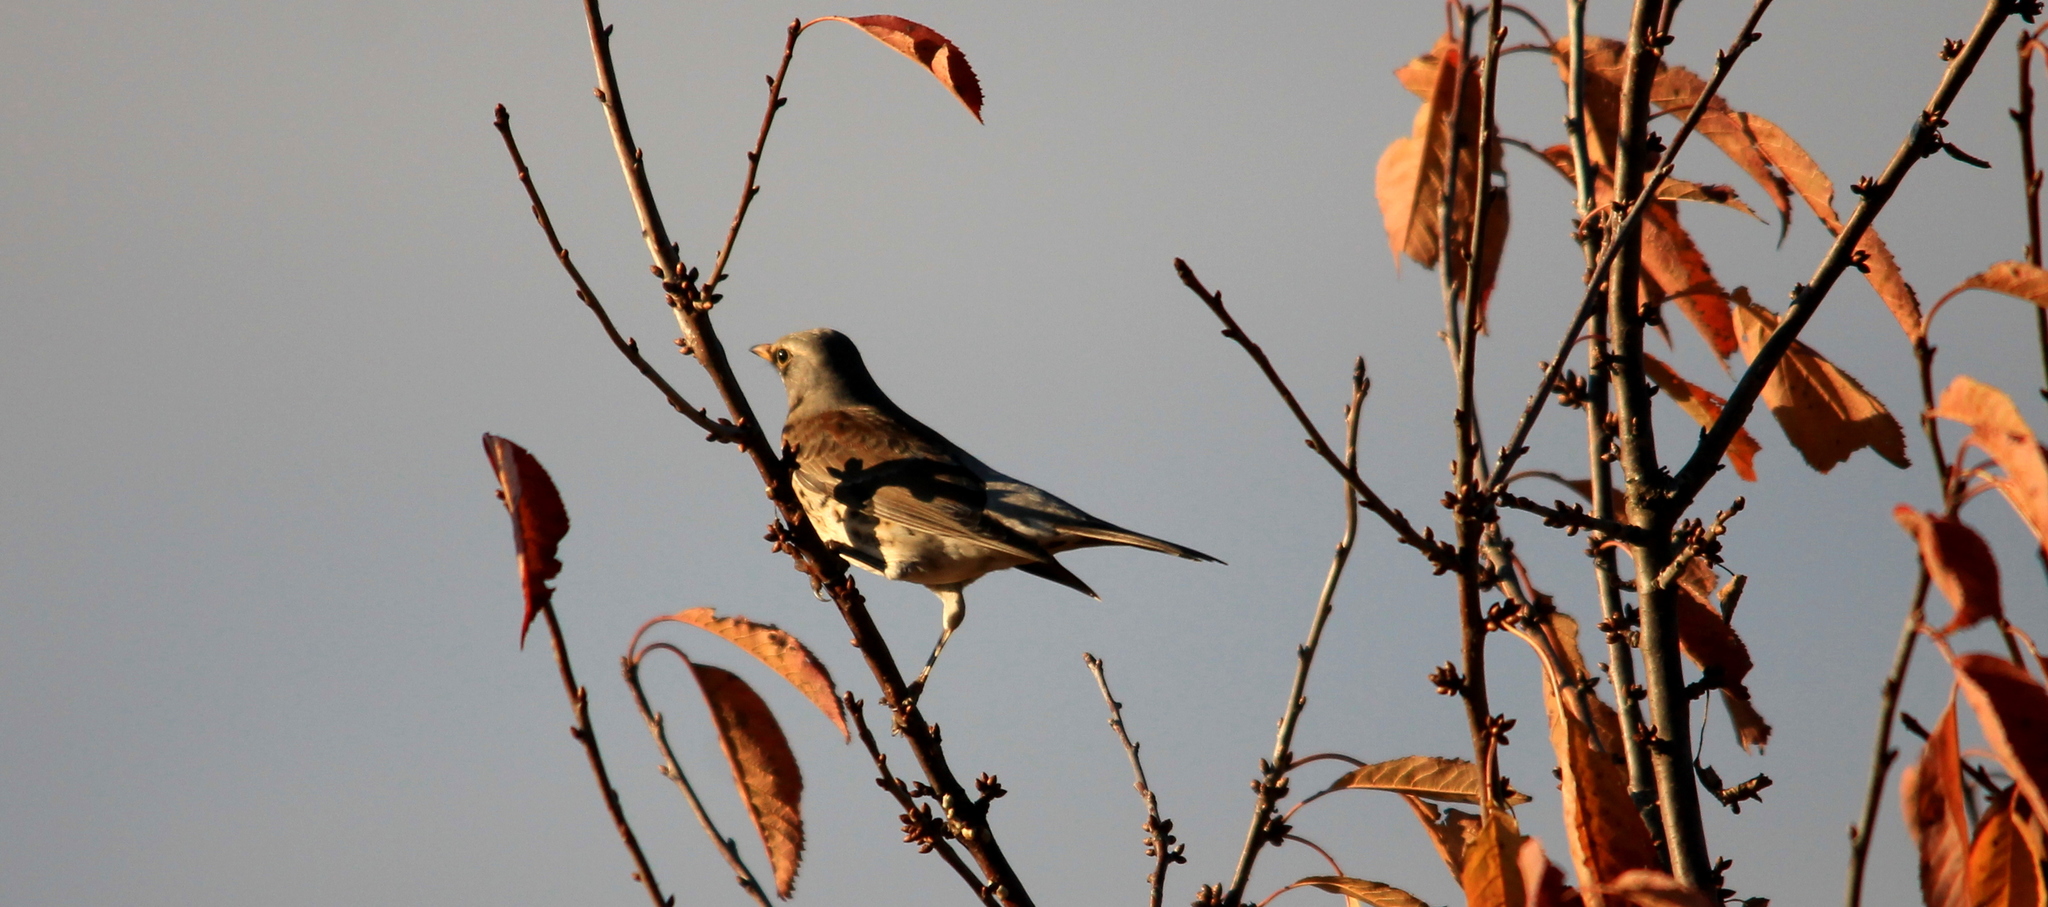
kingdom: Animalia
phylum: Chordata
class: Aves
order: Passeriformes
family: Turdidae
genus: Turdus
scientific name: Turdus pilaris
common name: Fieldfare
